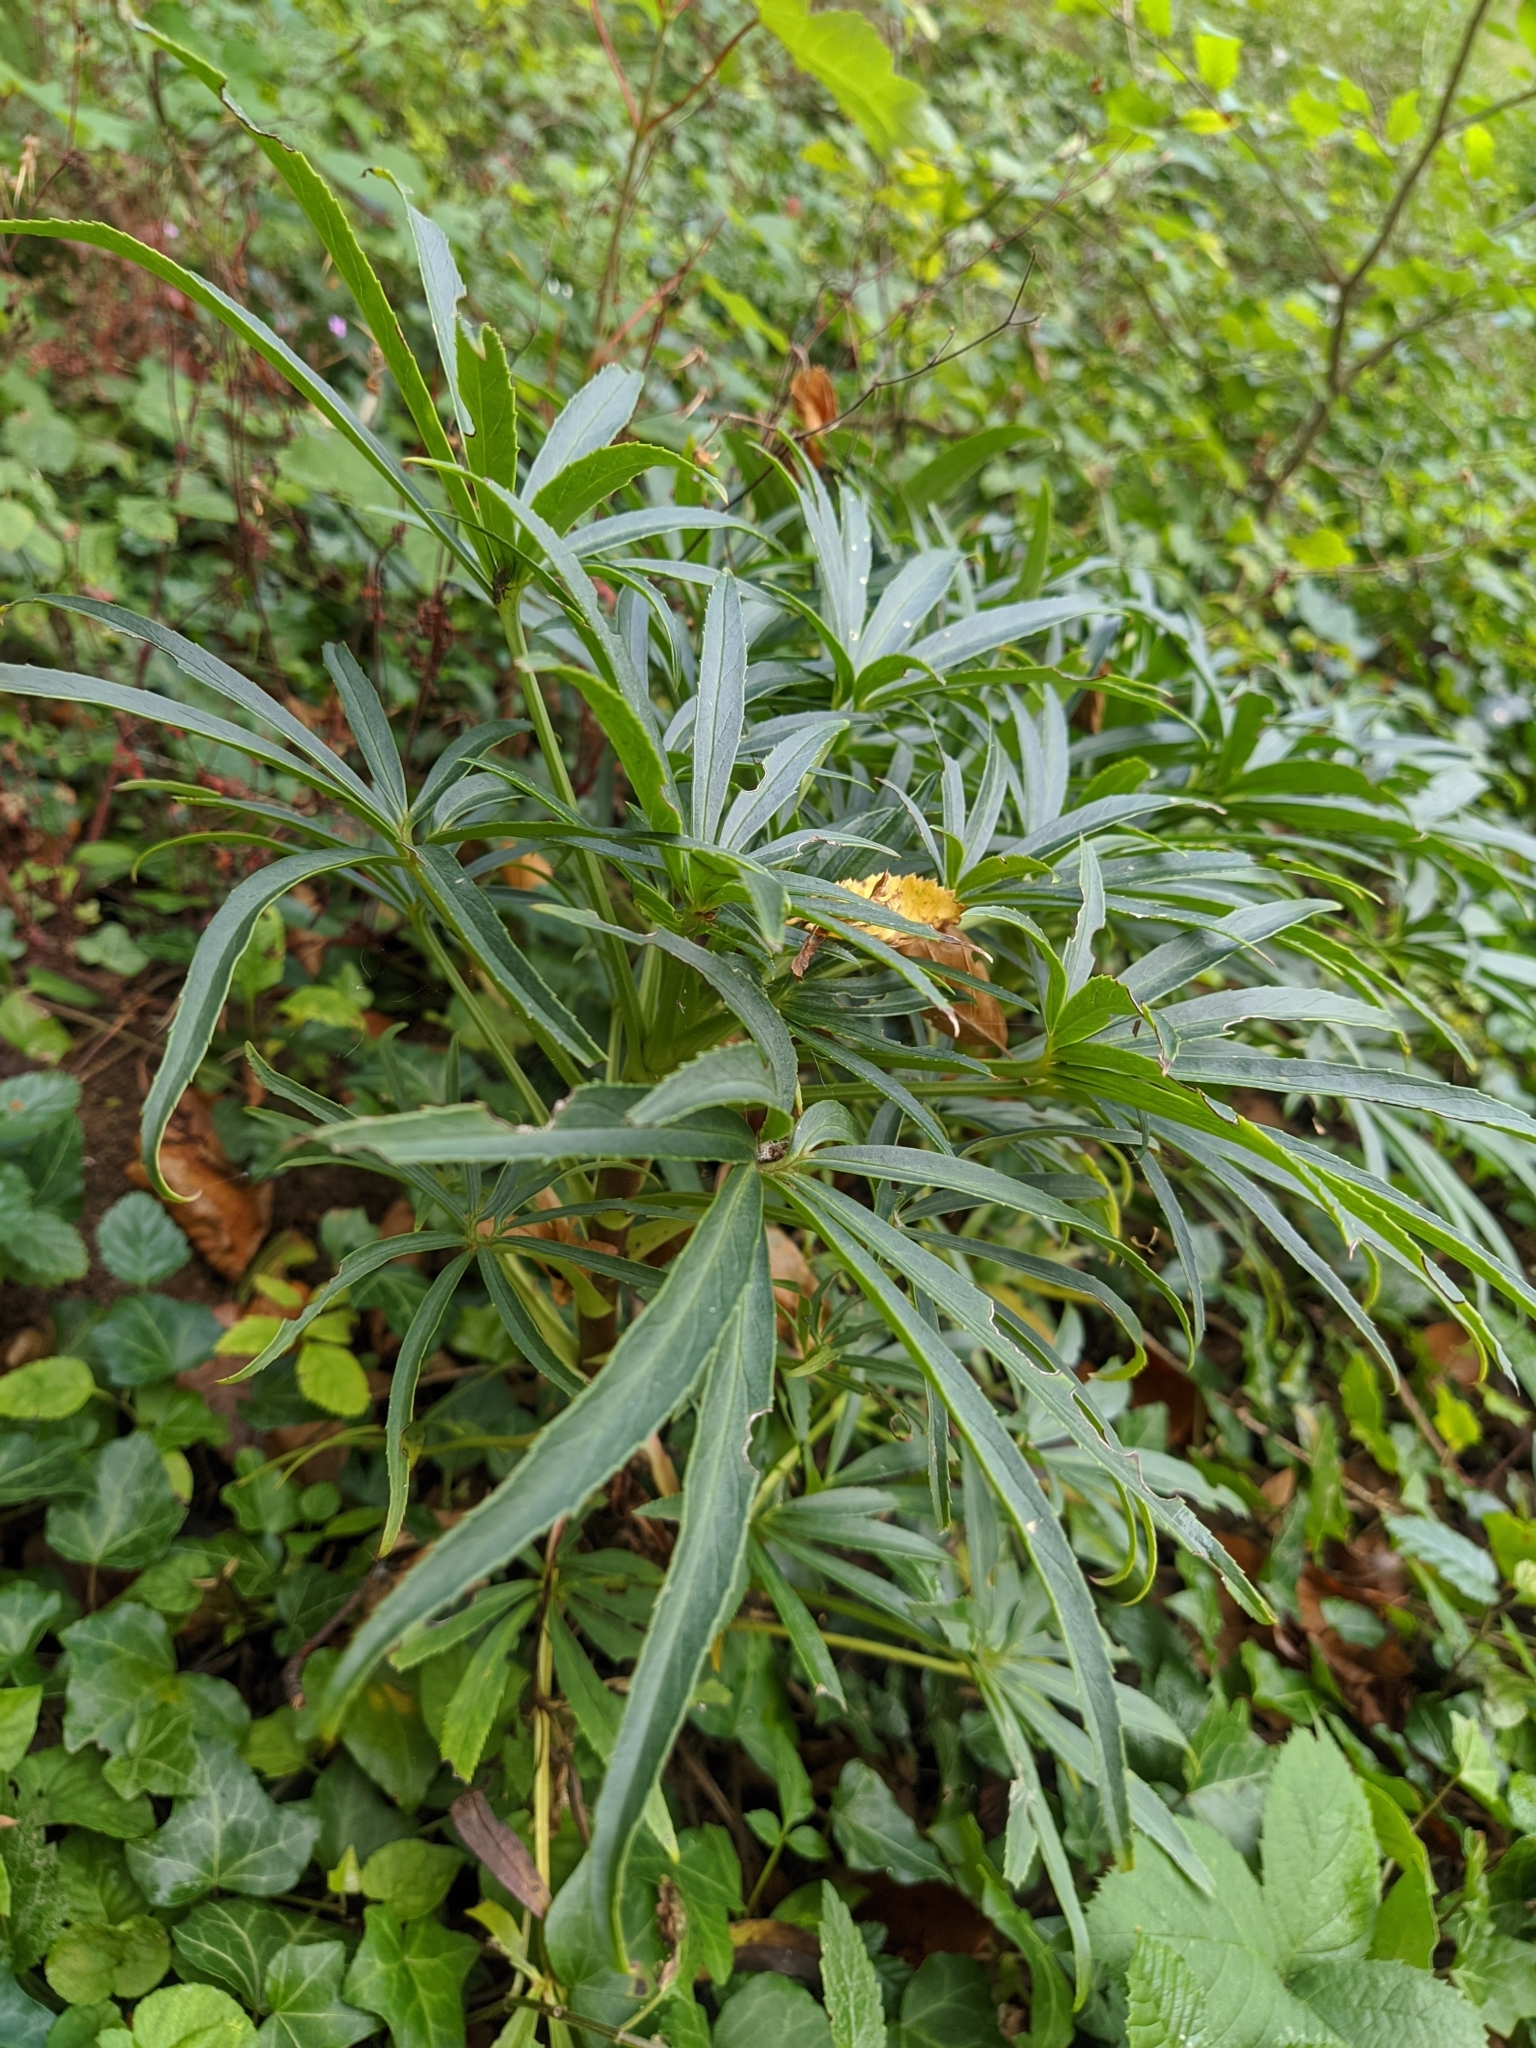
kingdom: Plantae
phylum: Tracheophyta
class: Magnoliopsida
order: Ranunculales
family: Ranunculaceae
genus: Helleborus
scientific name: Helleborus foetidus
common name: Stinking hellebore
